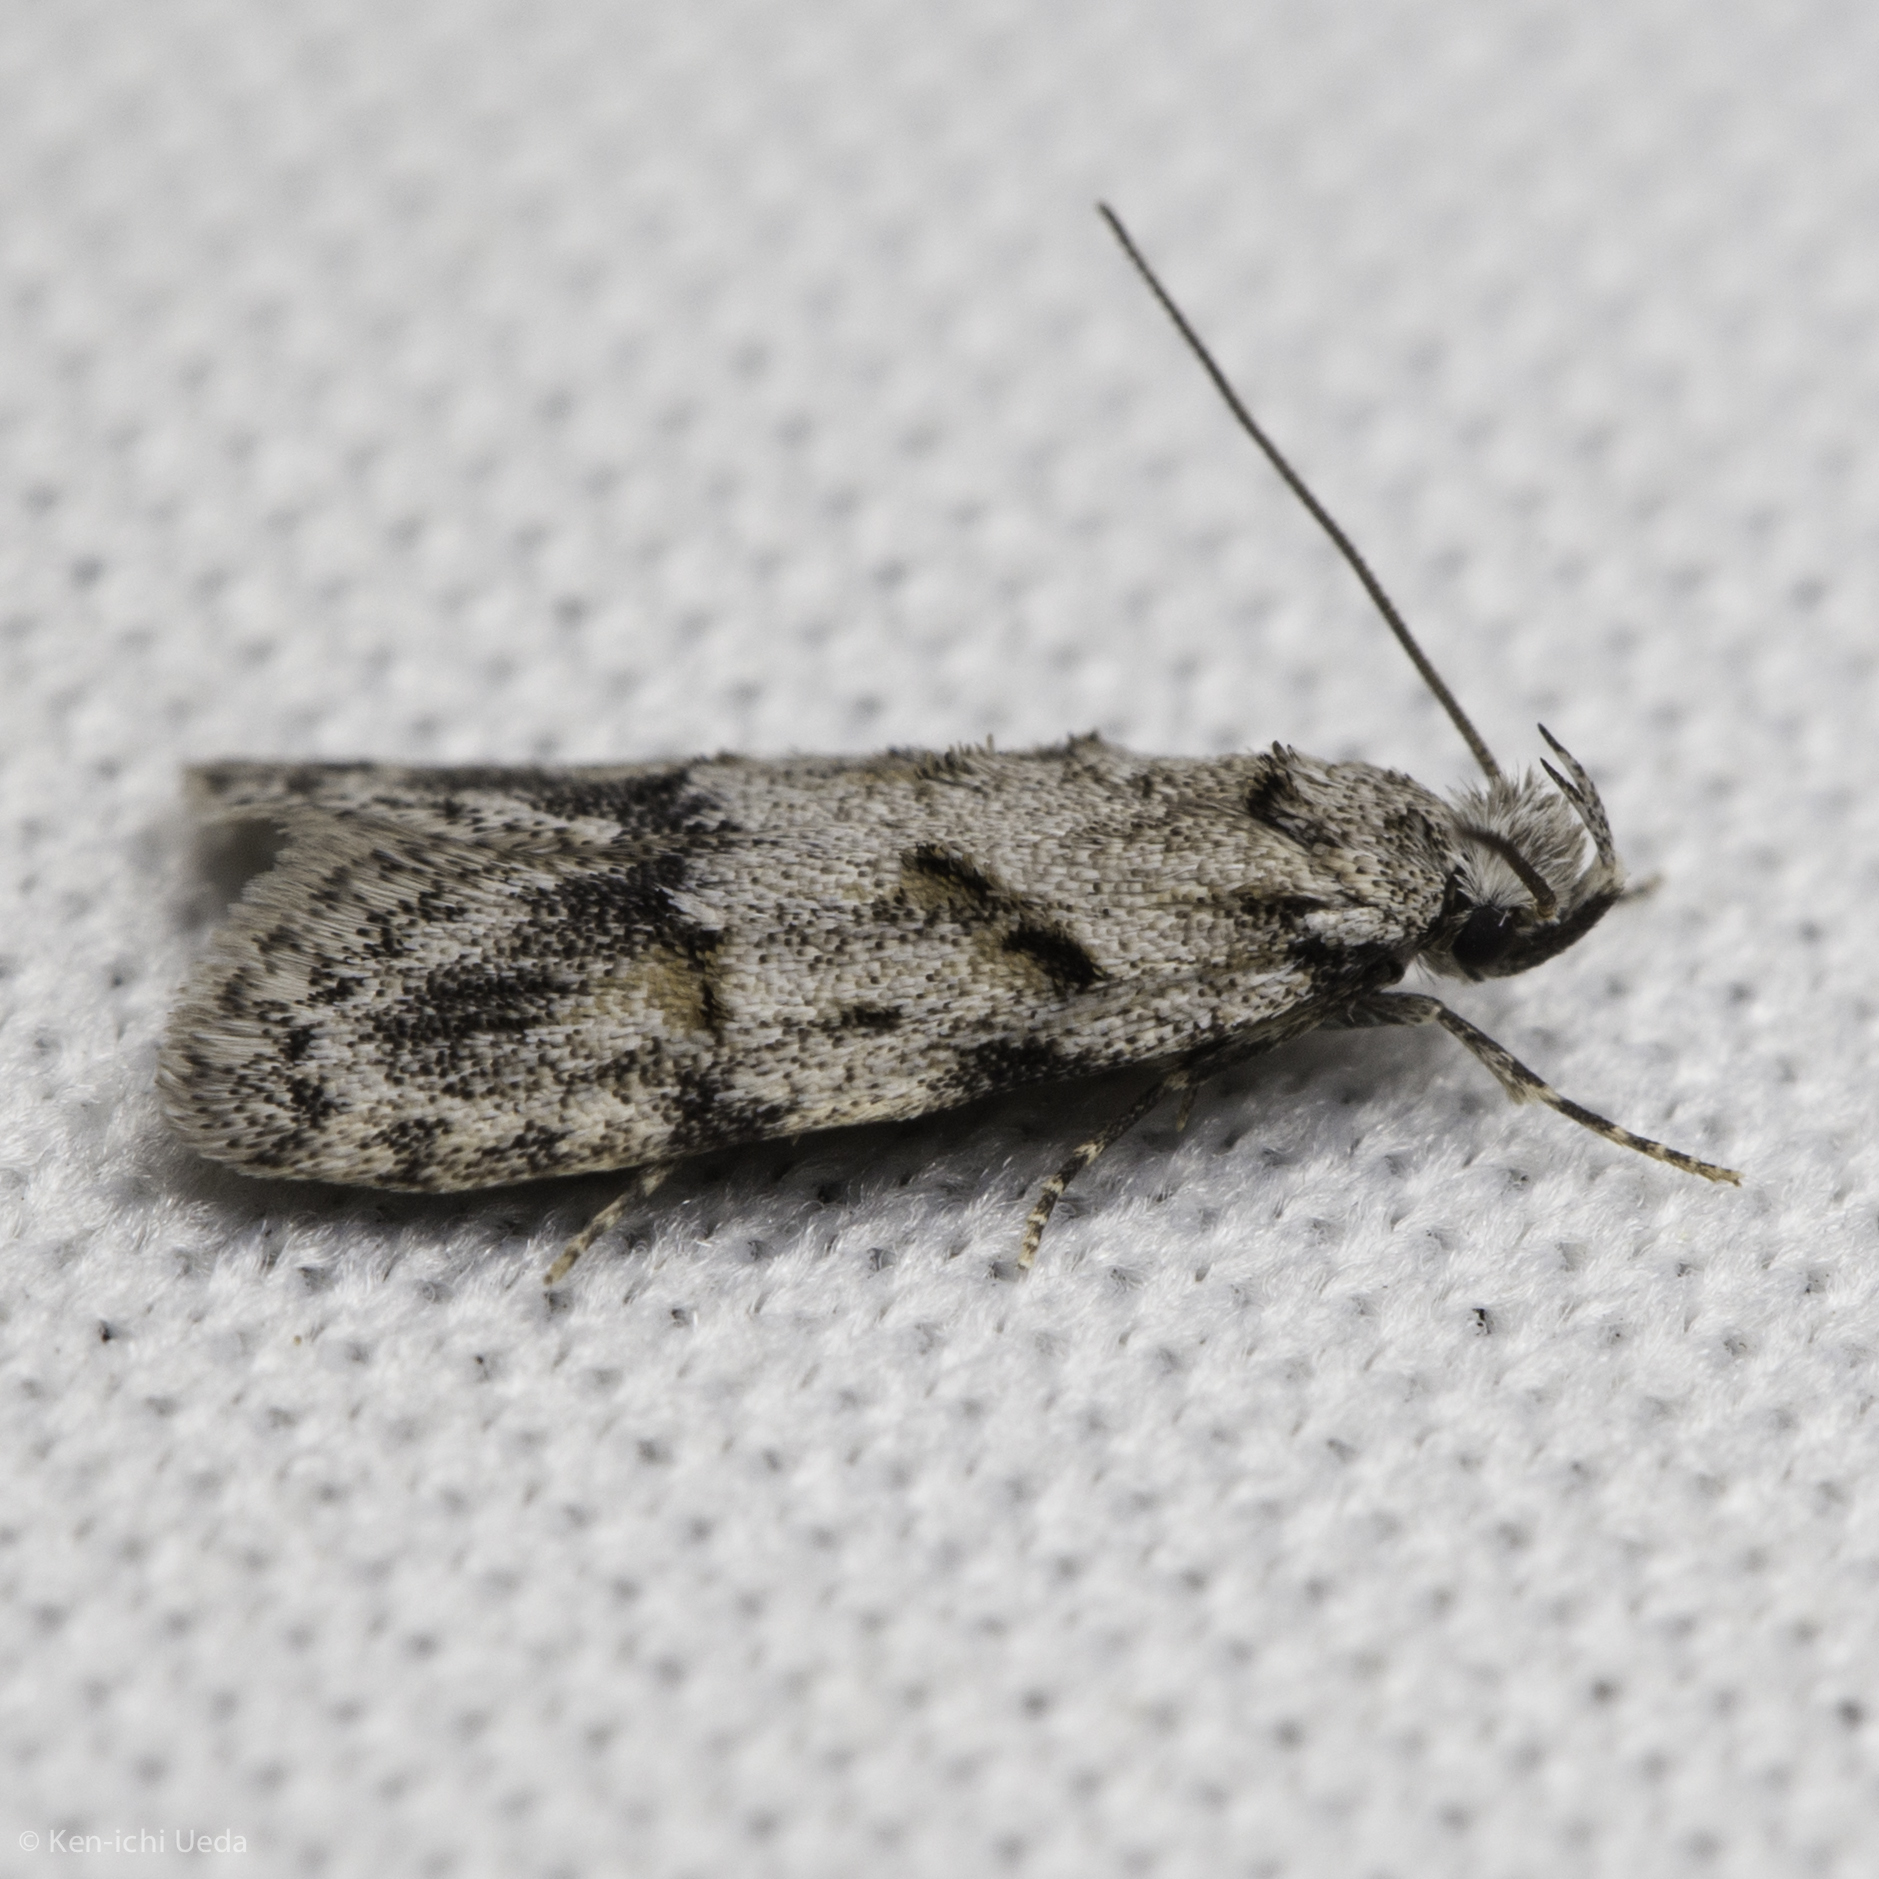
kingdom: Animalia
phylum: Arthropoda
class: Insecta
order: Lepidoptera
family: Autostichidae
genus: Symmoca
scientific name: Symmoca signatella
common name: Dockland obscure
